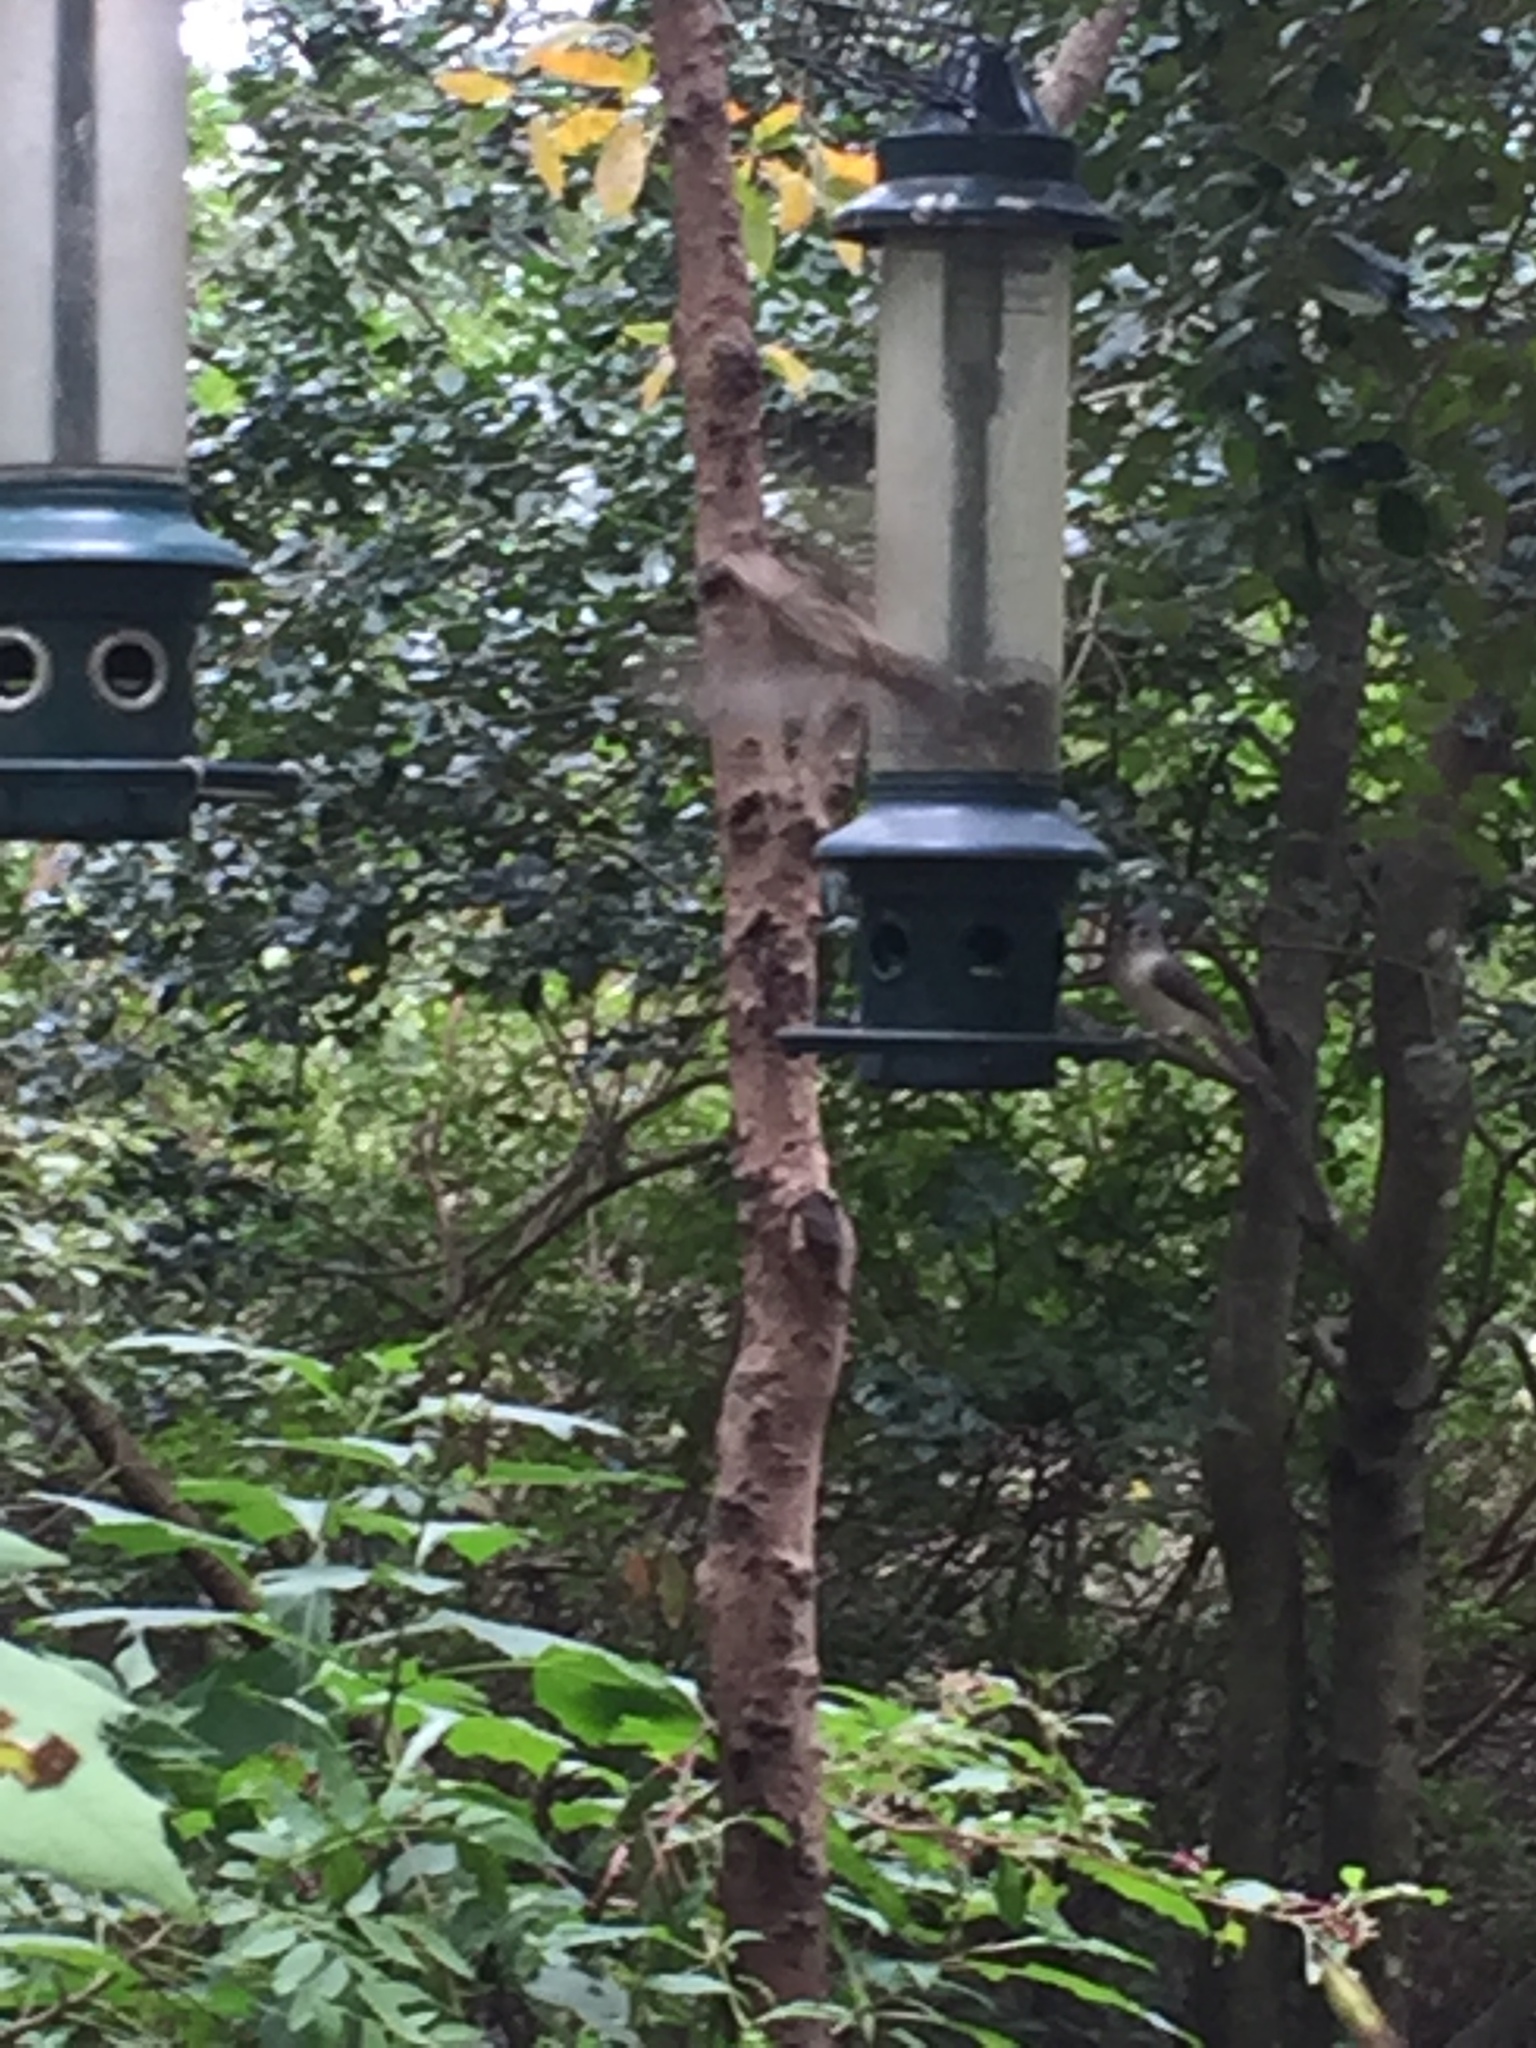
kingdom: Animalia
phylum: Chordata
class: Aves
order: Passeriformes
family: Paridae
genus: Baeolophus
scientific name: Baeolophus bicolor
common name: Tufted titmouse
